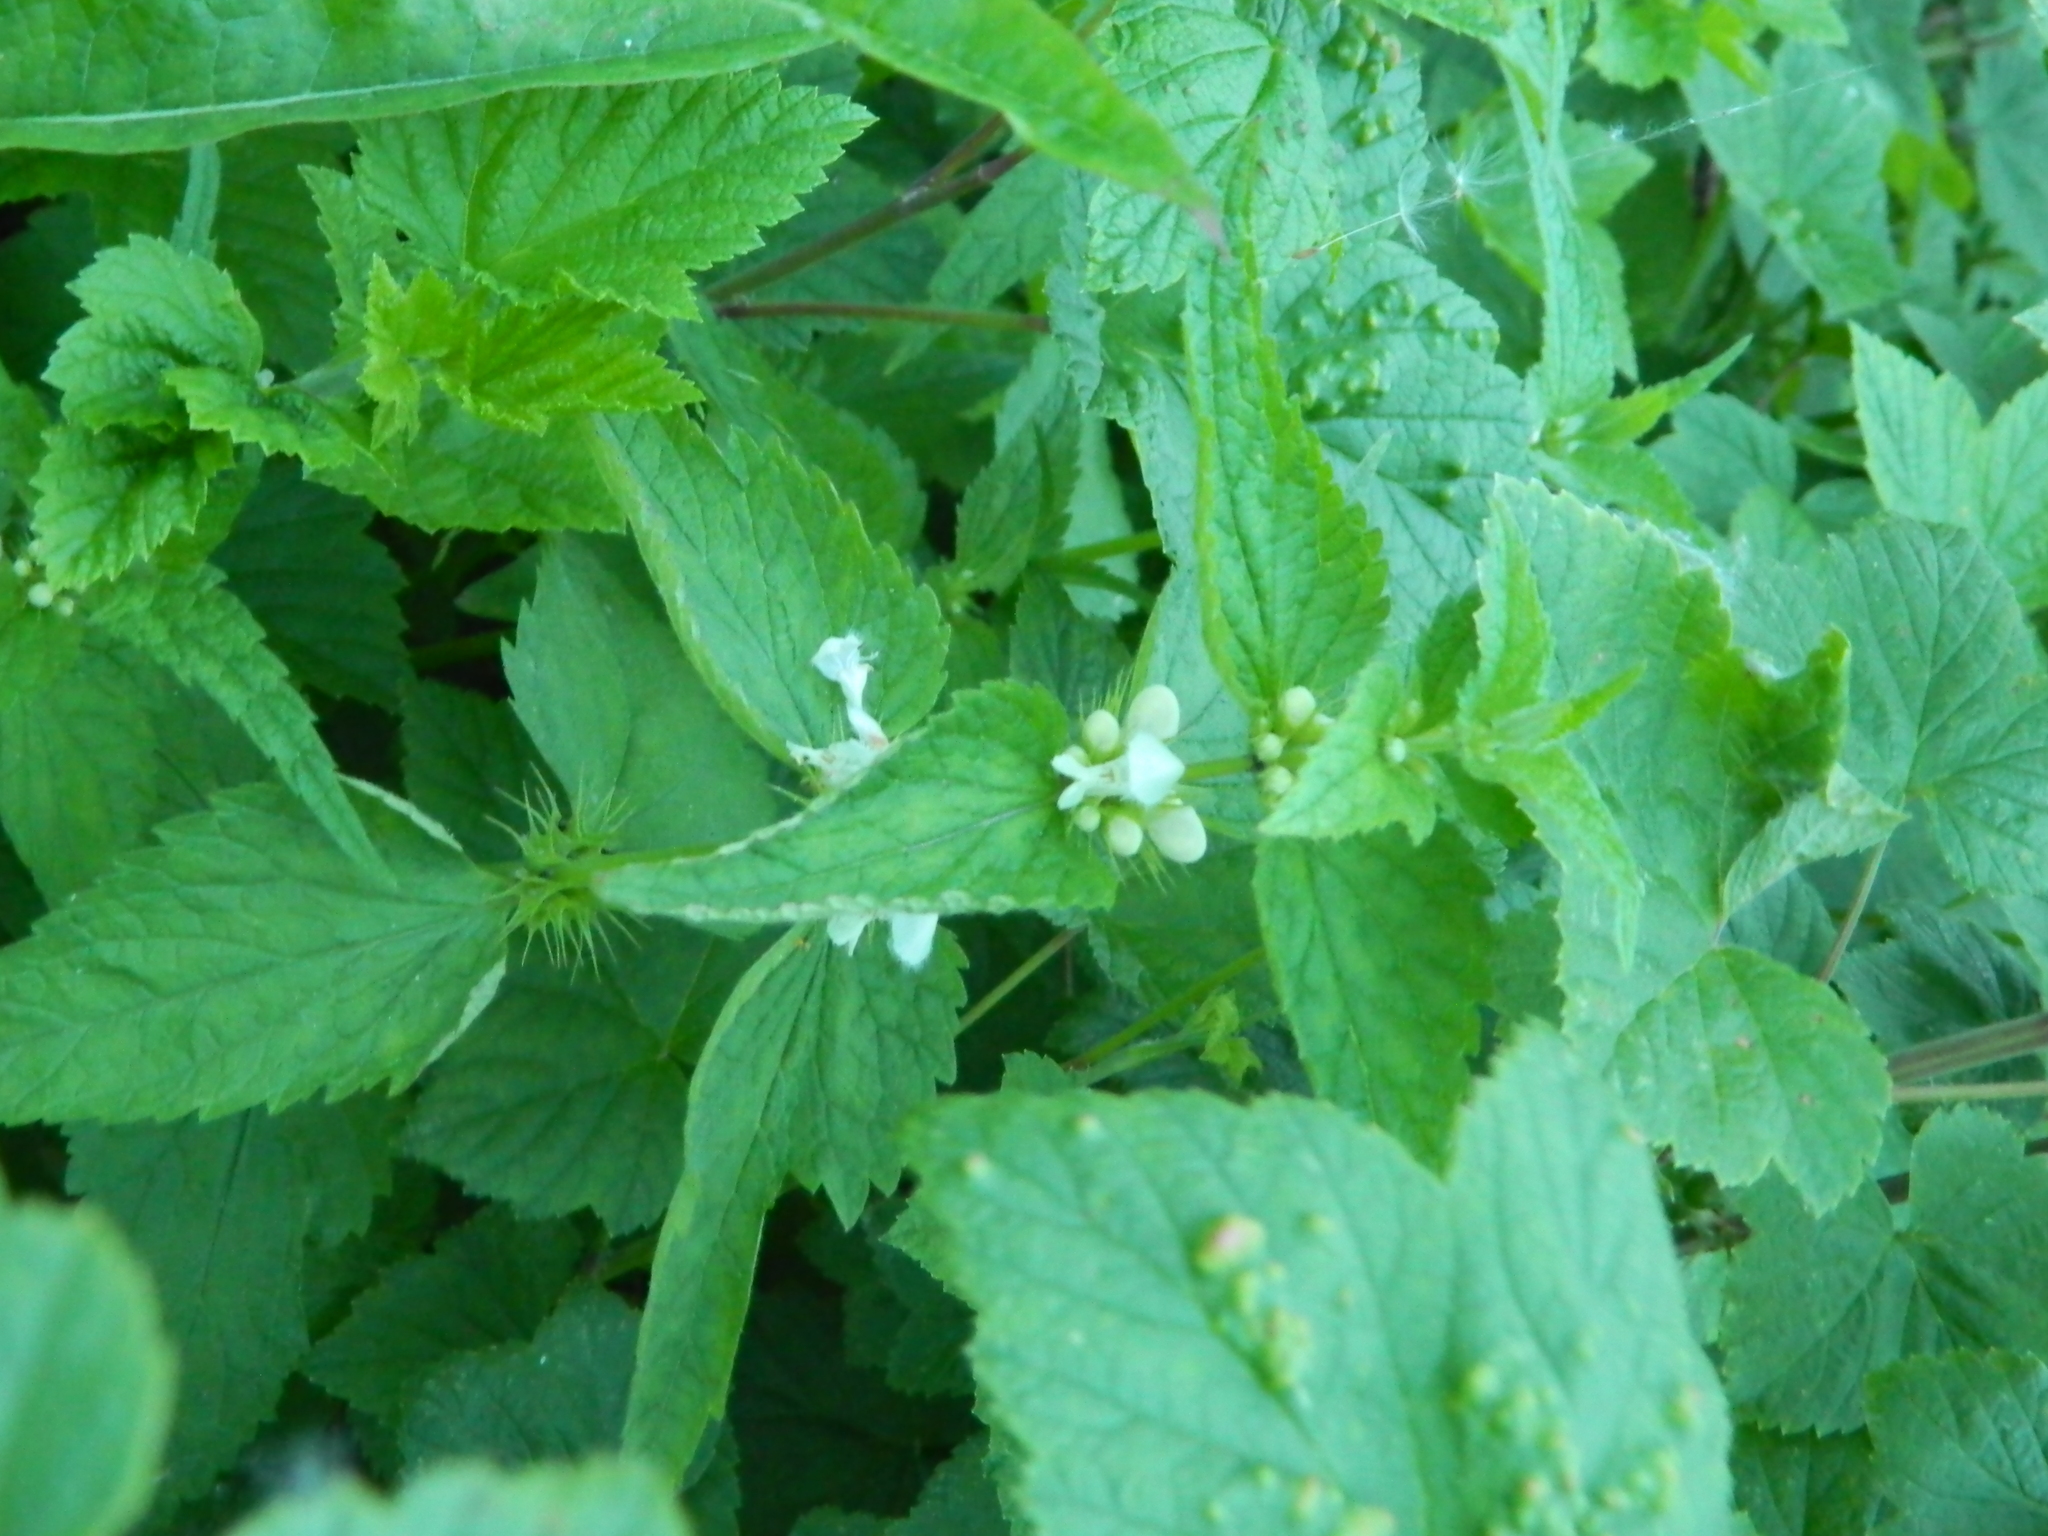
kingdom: Plantae
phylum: Tracheophyta
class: Magnoliopsida
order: Lamiales
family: Lamiaceae
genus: Lamium
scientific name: Lamium album
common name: White dead-nettle
